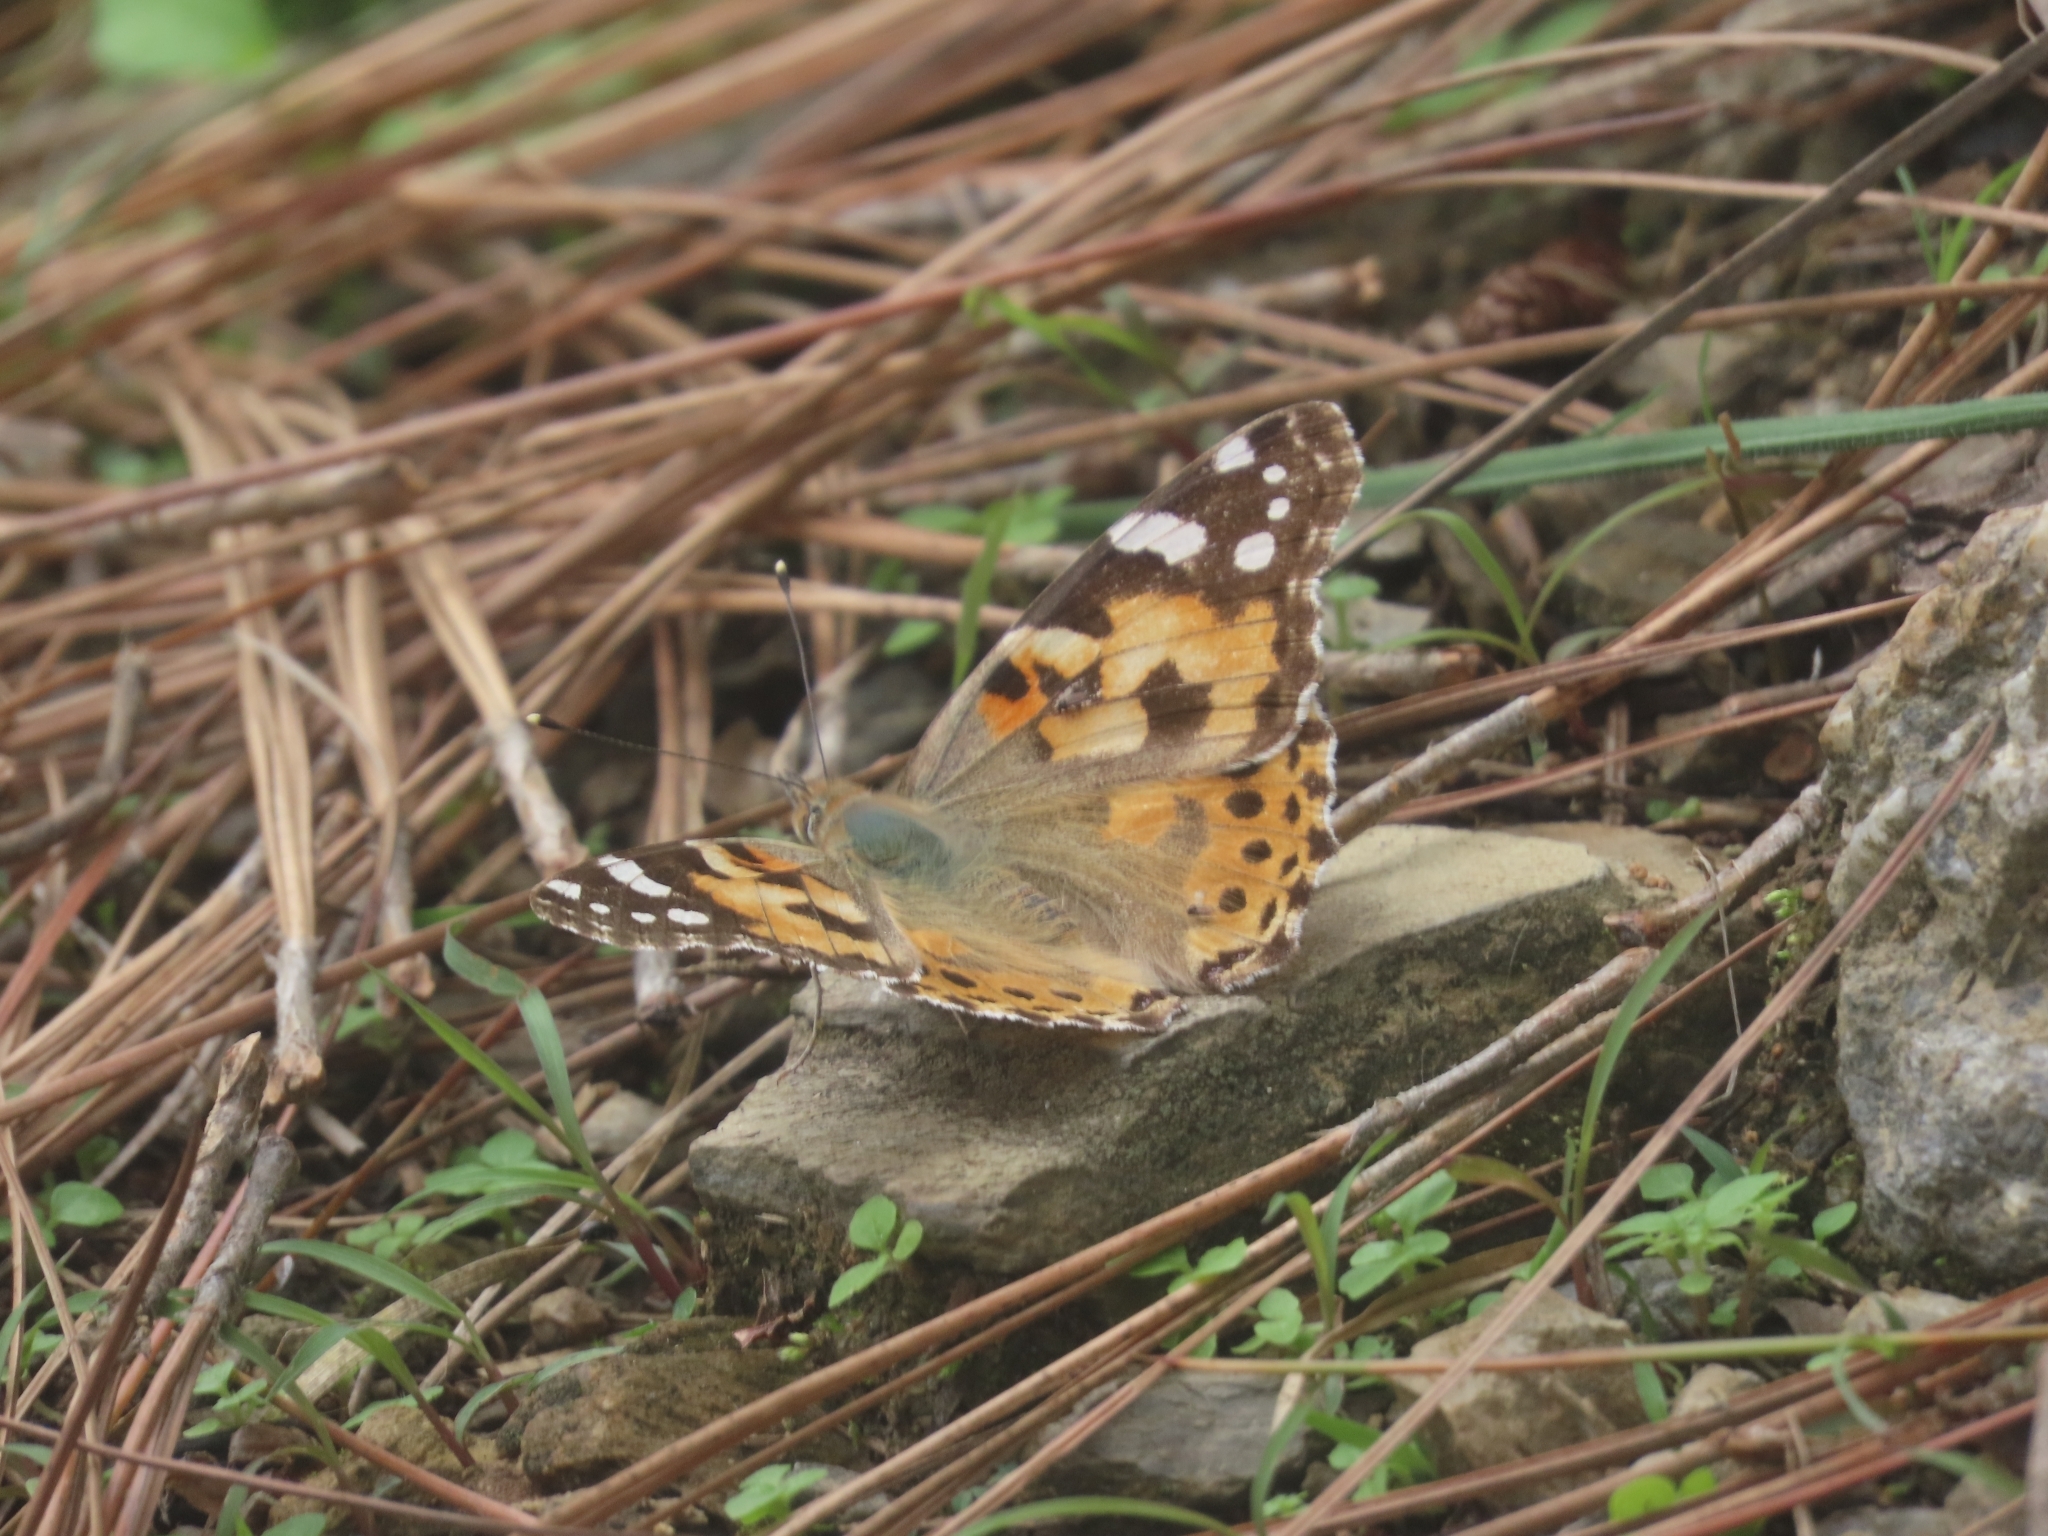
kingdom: Animalia
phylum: Arthropoda
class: Insecta
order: Lepidoptera
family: Nymphalidae
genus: Vanessa
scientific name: Vanessa cardui
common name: Painted lady
